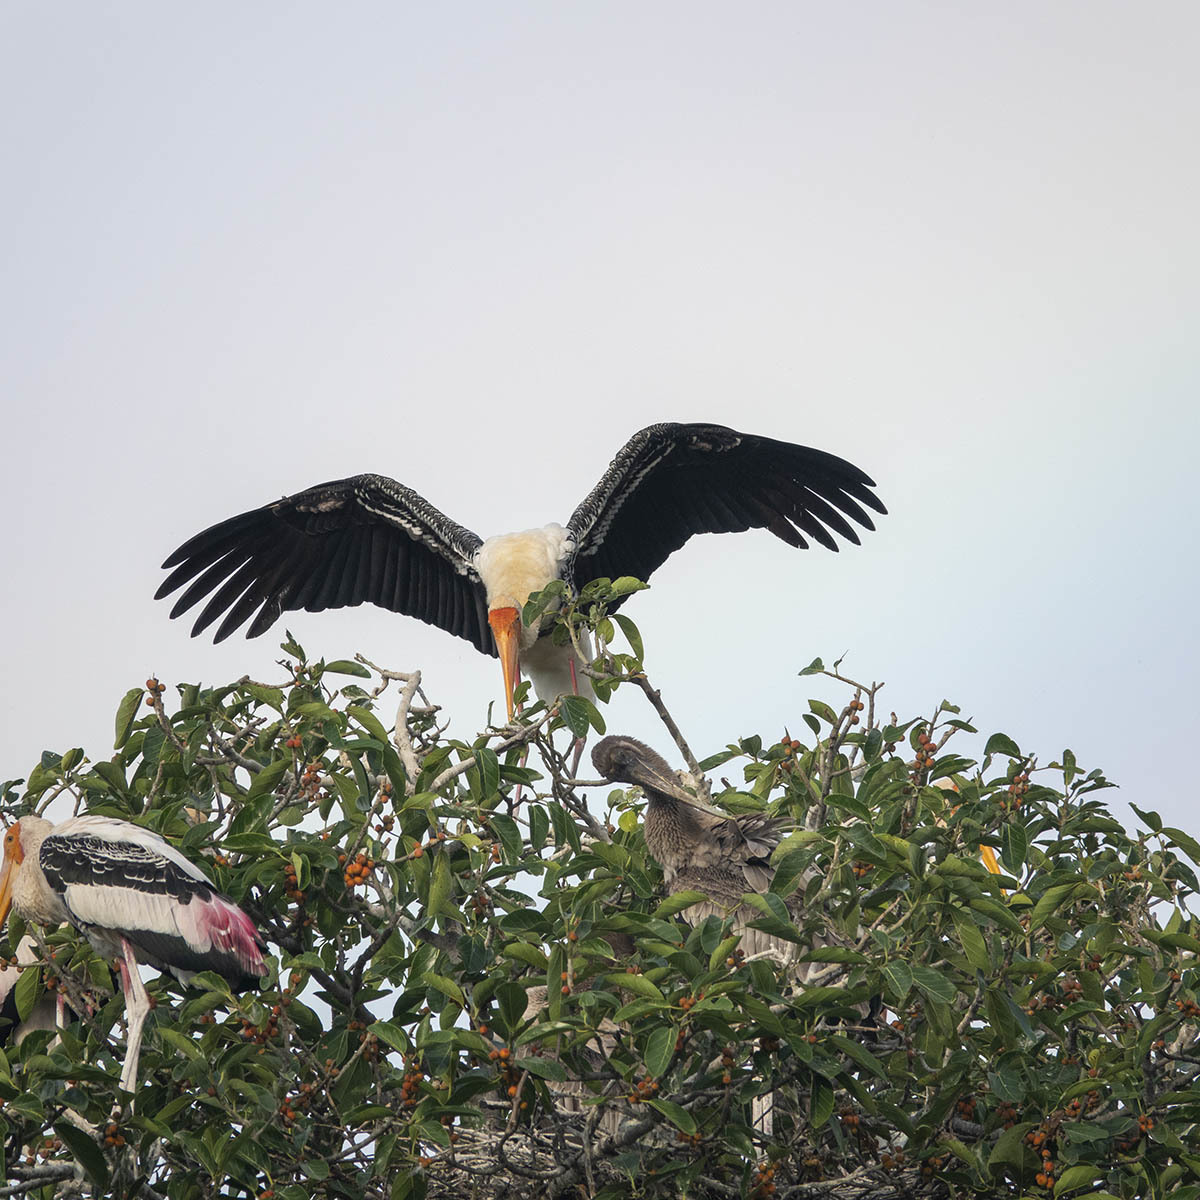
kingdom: Animalia
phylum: Chordata
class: Aves
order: Ciconiiformes
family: Ciconiidae
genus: Mycteria
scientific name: Mycteria leucocephala
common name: Painted stork
